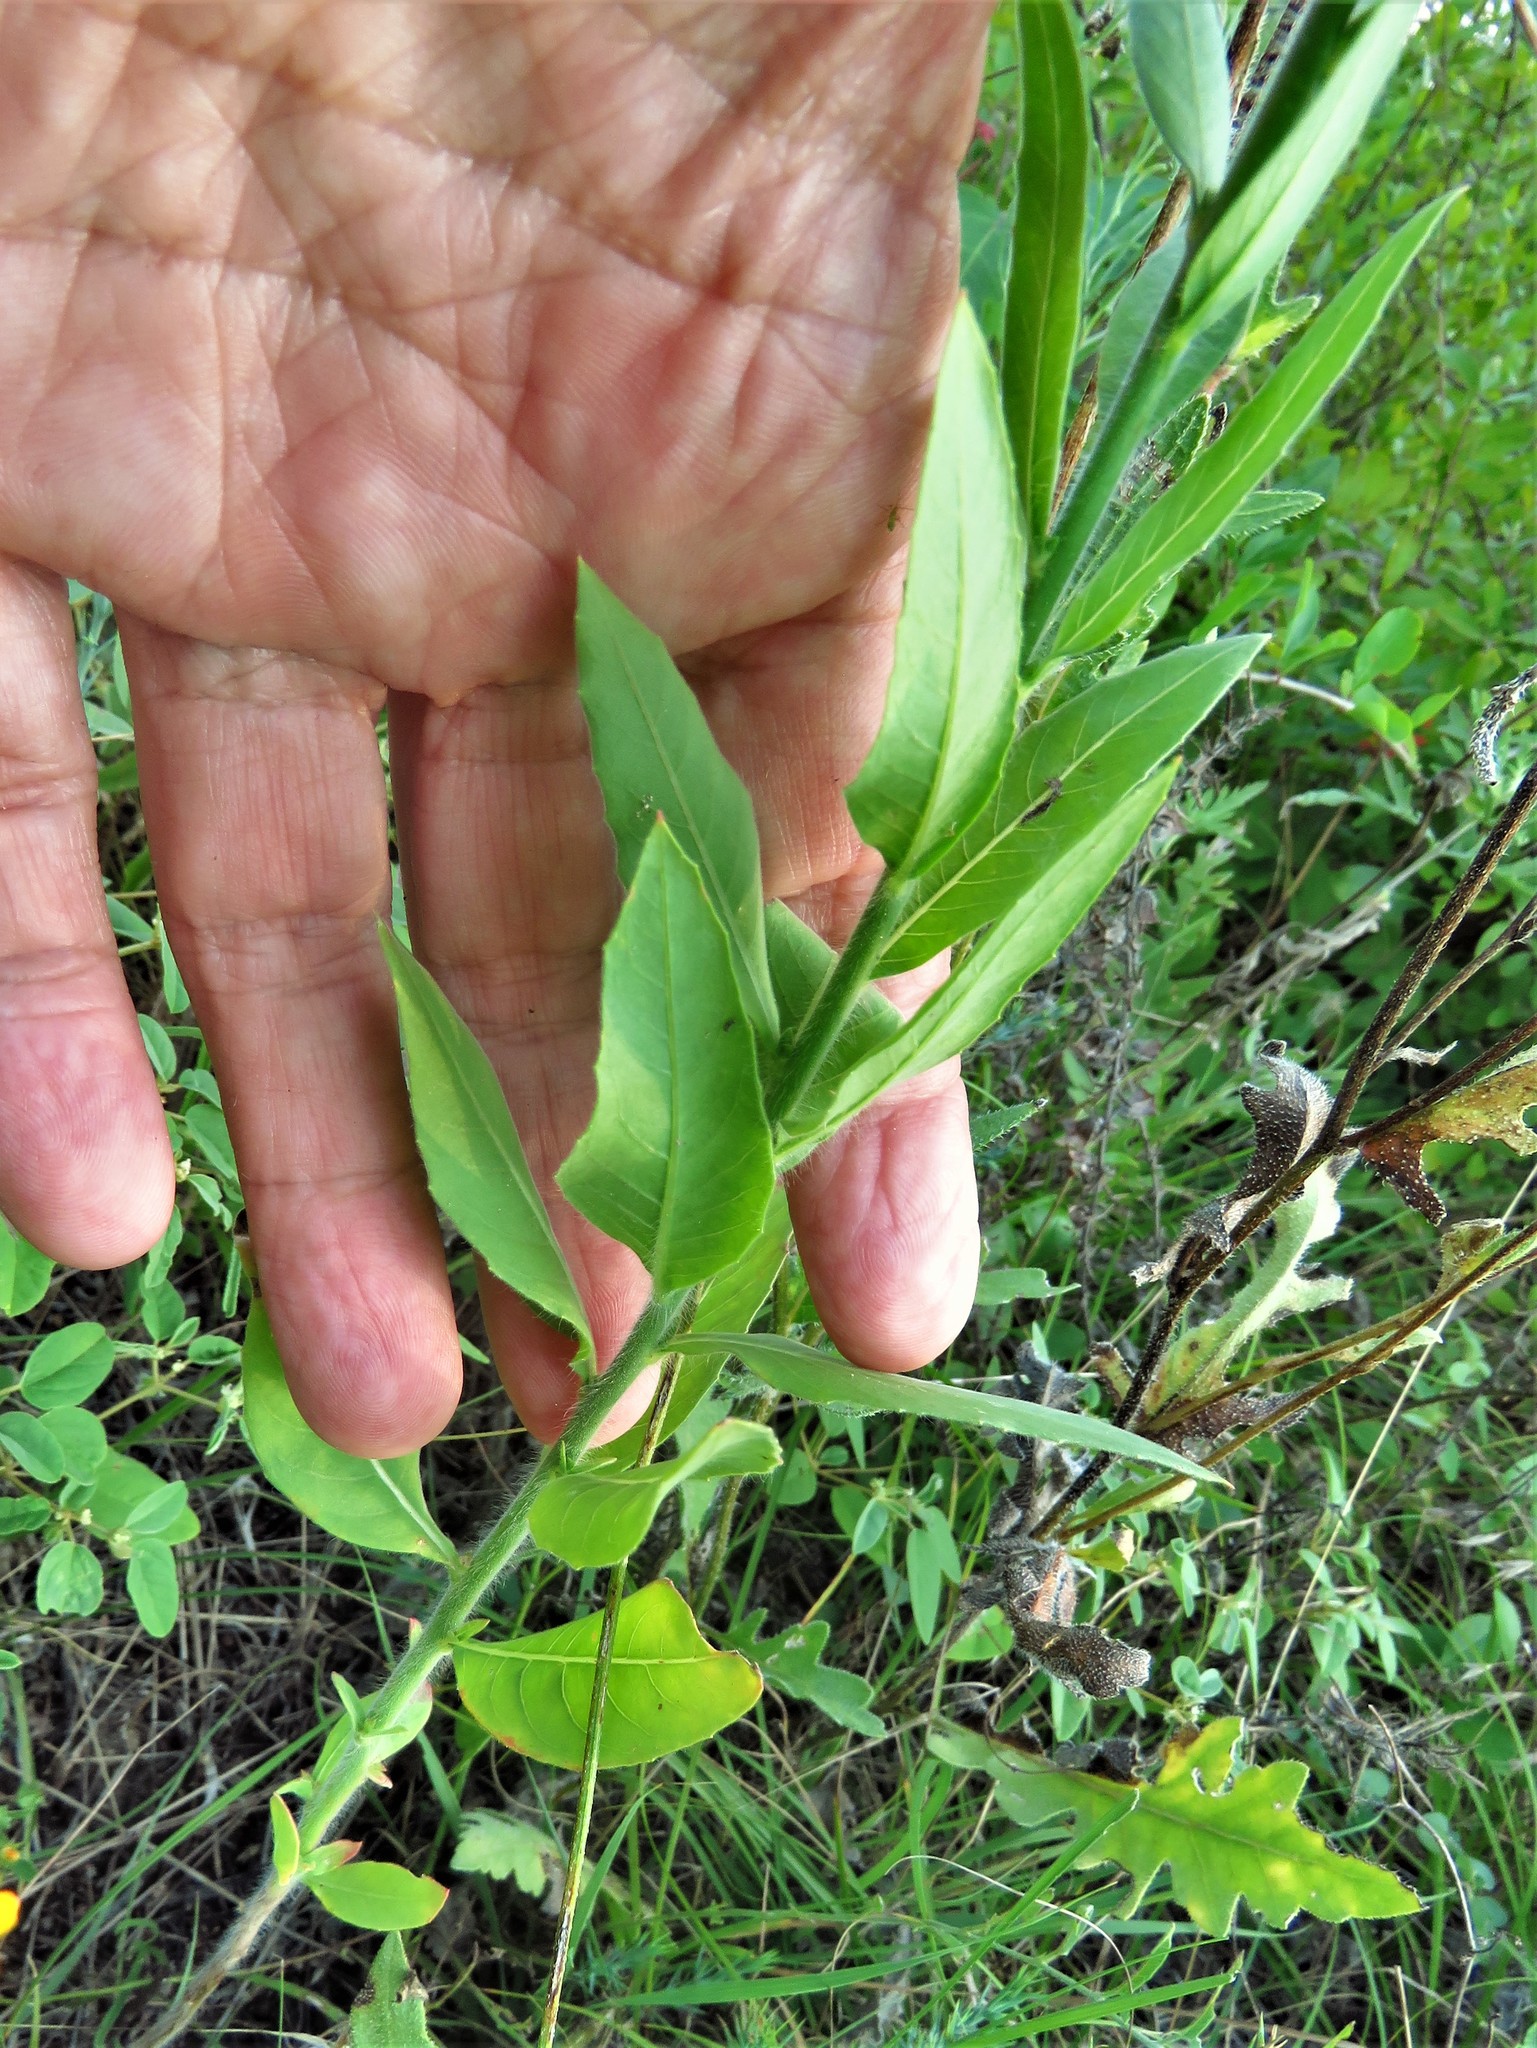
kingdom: Plantae
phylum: Tracheophyta
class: Magnoliopsida
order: Myrtales
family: Onagraceae
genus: Oenothera
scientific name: Oenothera curtiflora
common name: Velvetweed
